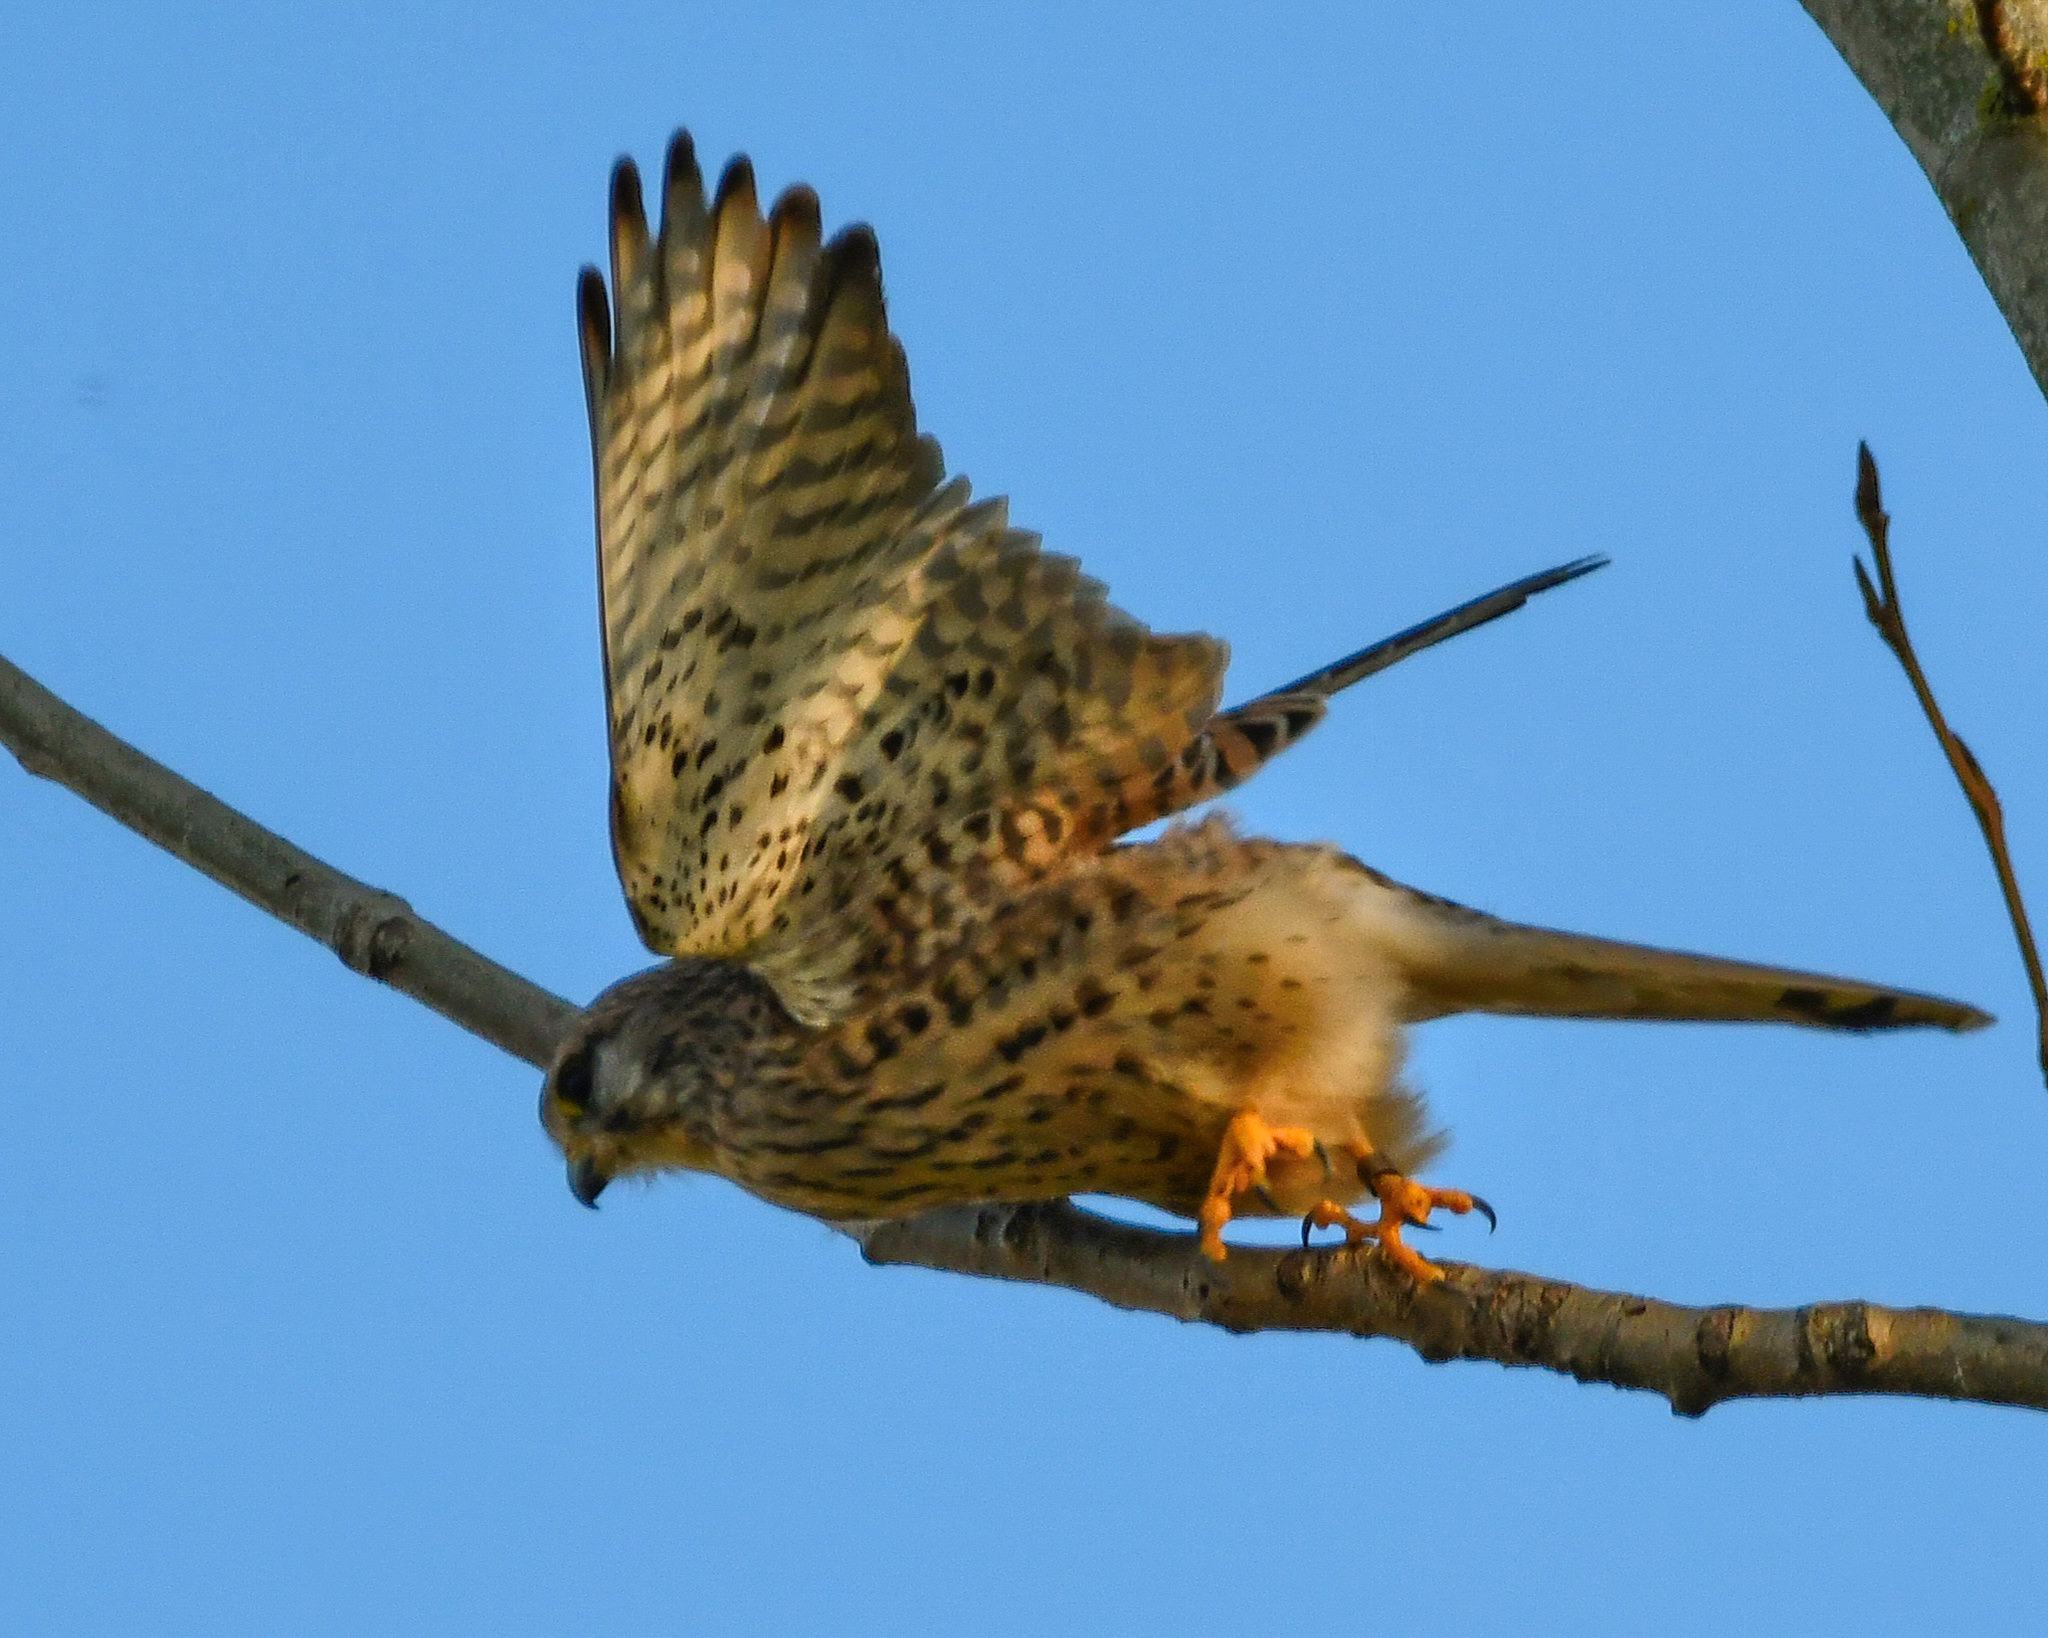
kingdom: Animalia
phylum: Chordata
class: Aves
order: Falconiformes
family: Falconidae
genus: Falco
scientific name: Falco tinnunculus
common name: Common kestrel
